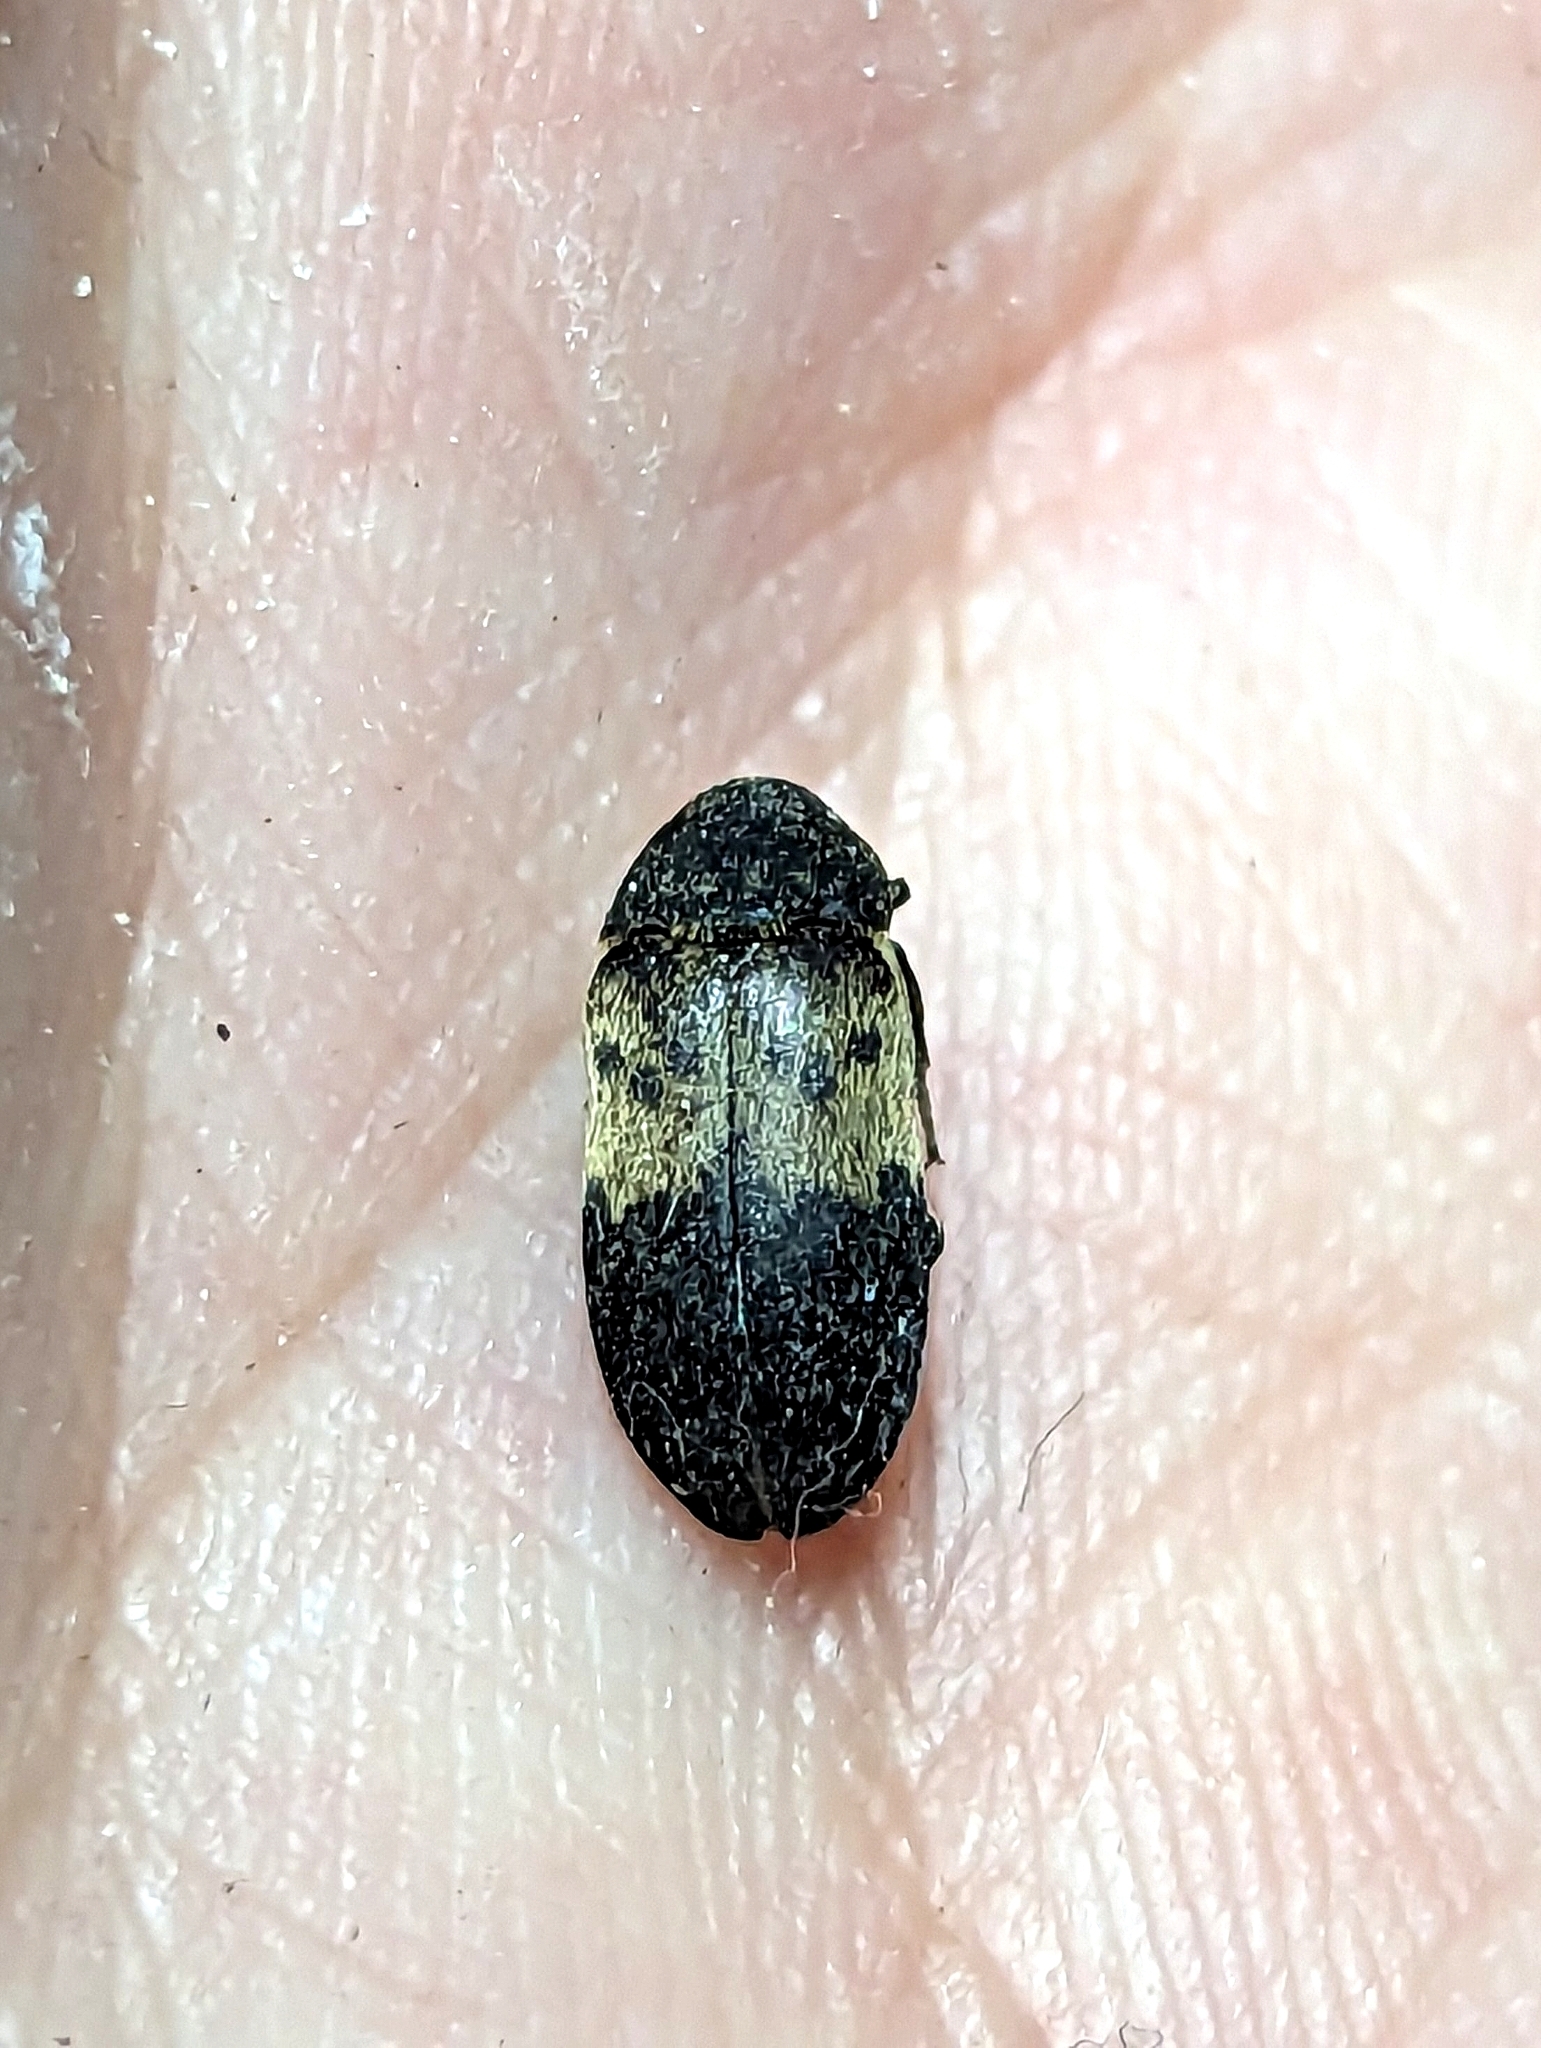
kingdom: Animalia
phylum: Arthropoda
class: Insecta
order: Coleoptera
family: Dermestidae
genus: Dermestes
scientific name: Dermestes lardarius
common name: Larder beetle
